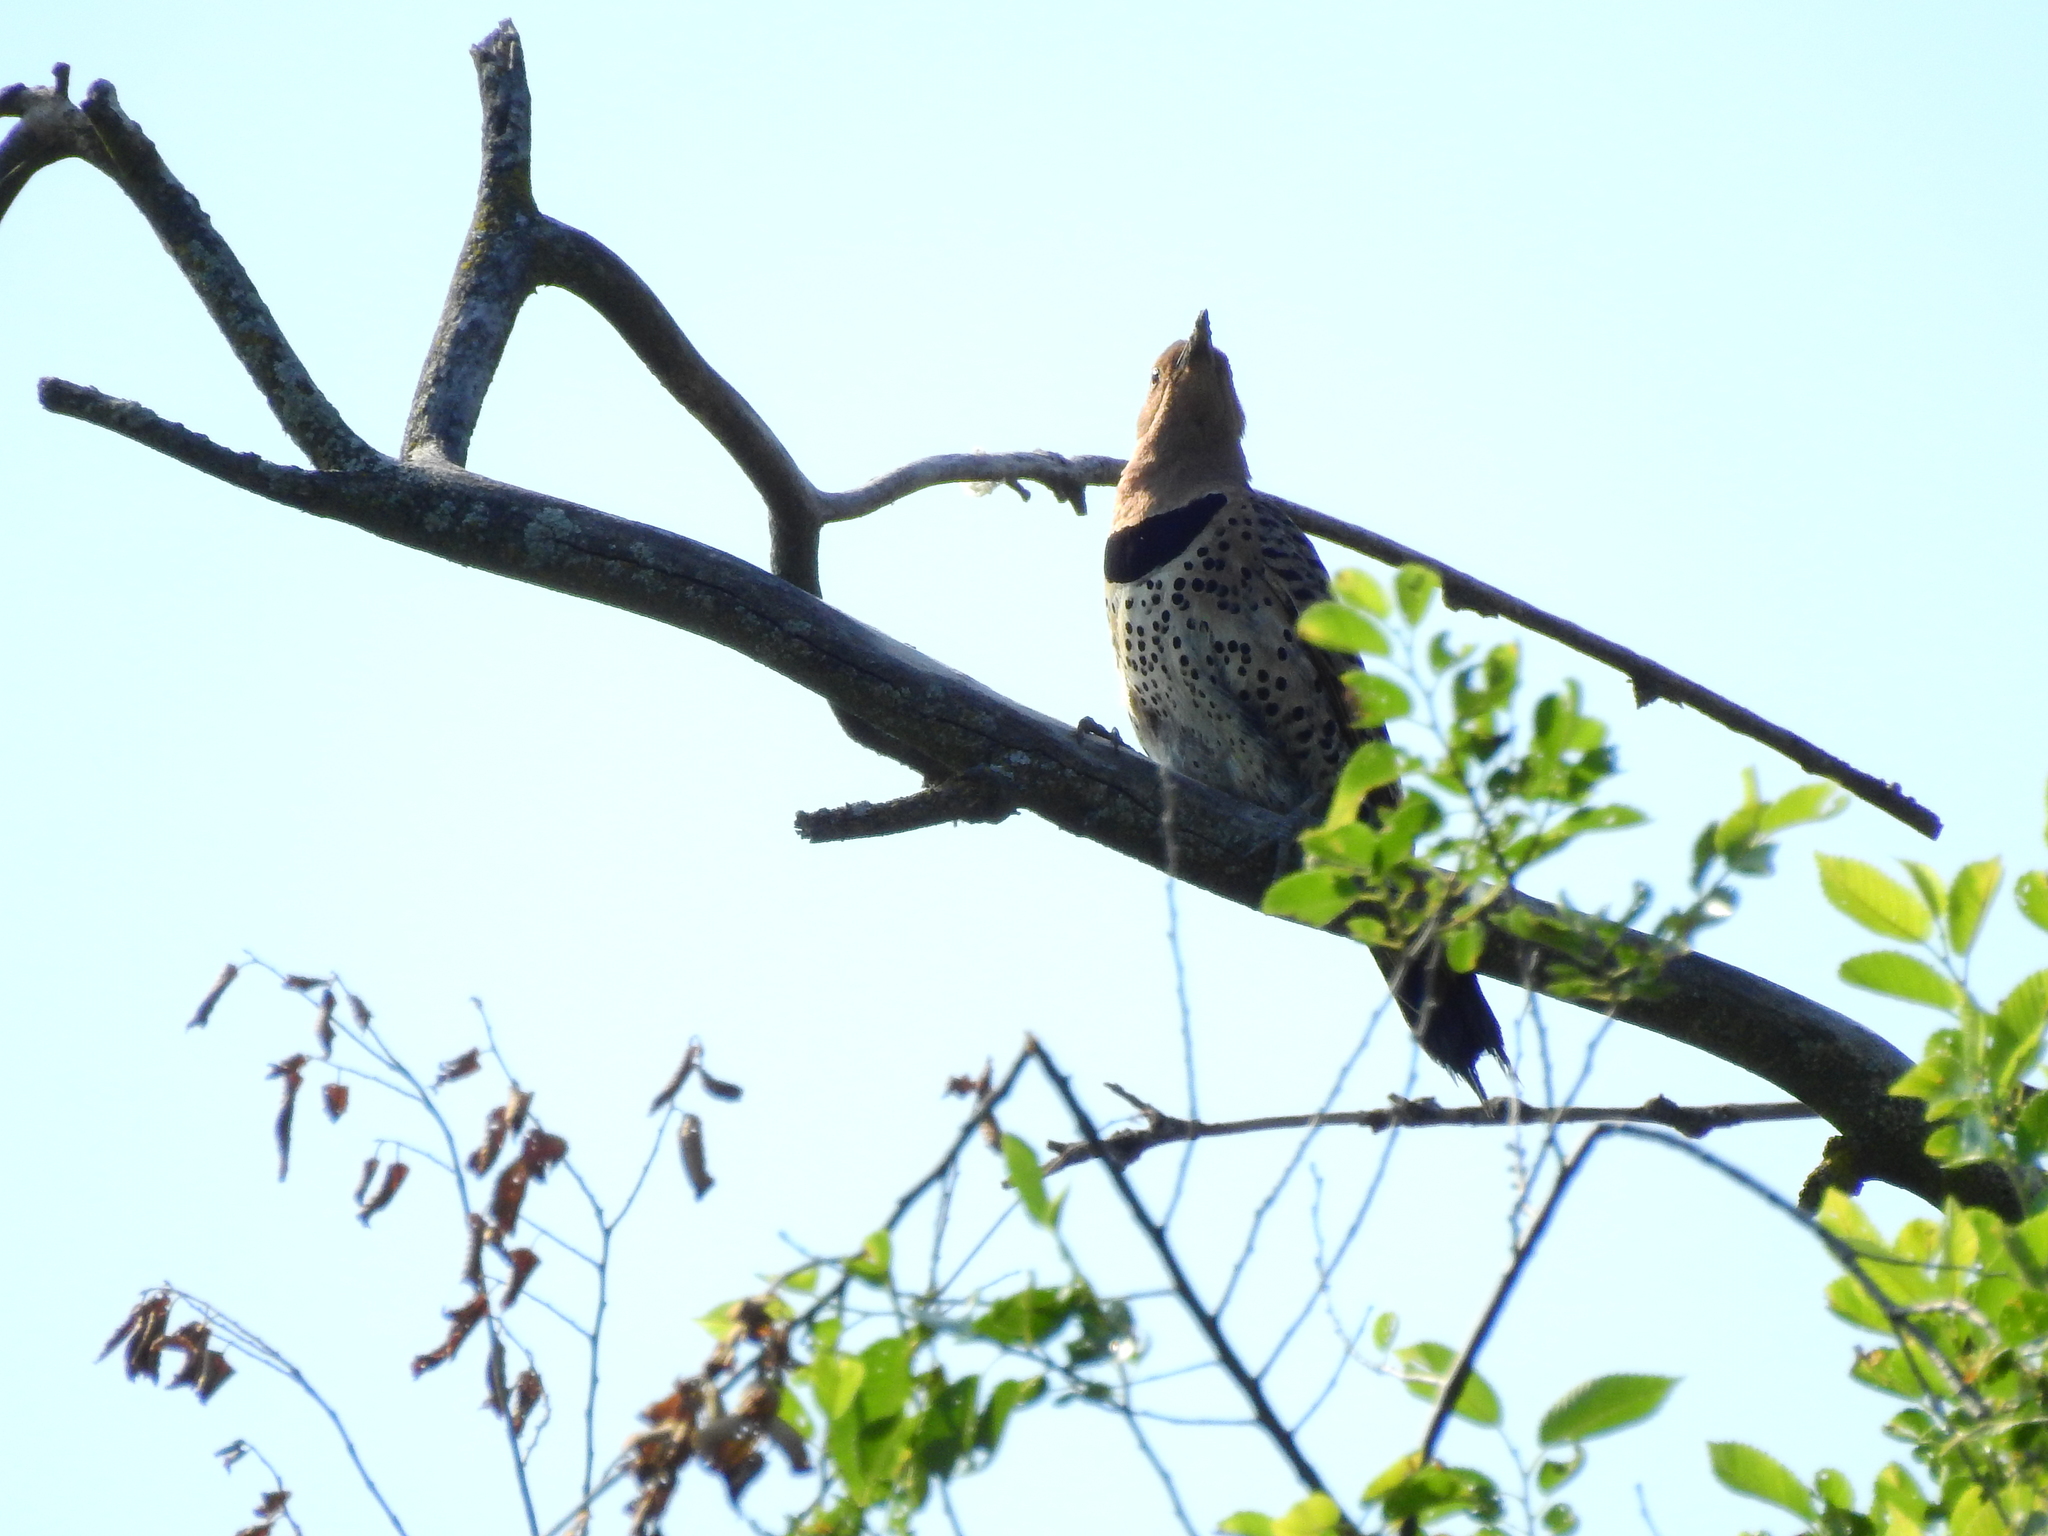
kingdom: Animalia
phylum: Chordata
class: Aves
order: Piciformes
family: Picidae
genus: Colaptes
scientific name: Colaptes auratus
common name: Northern flicker
